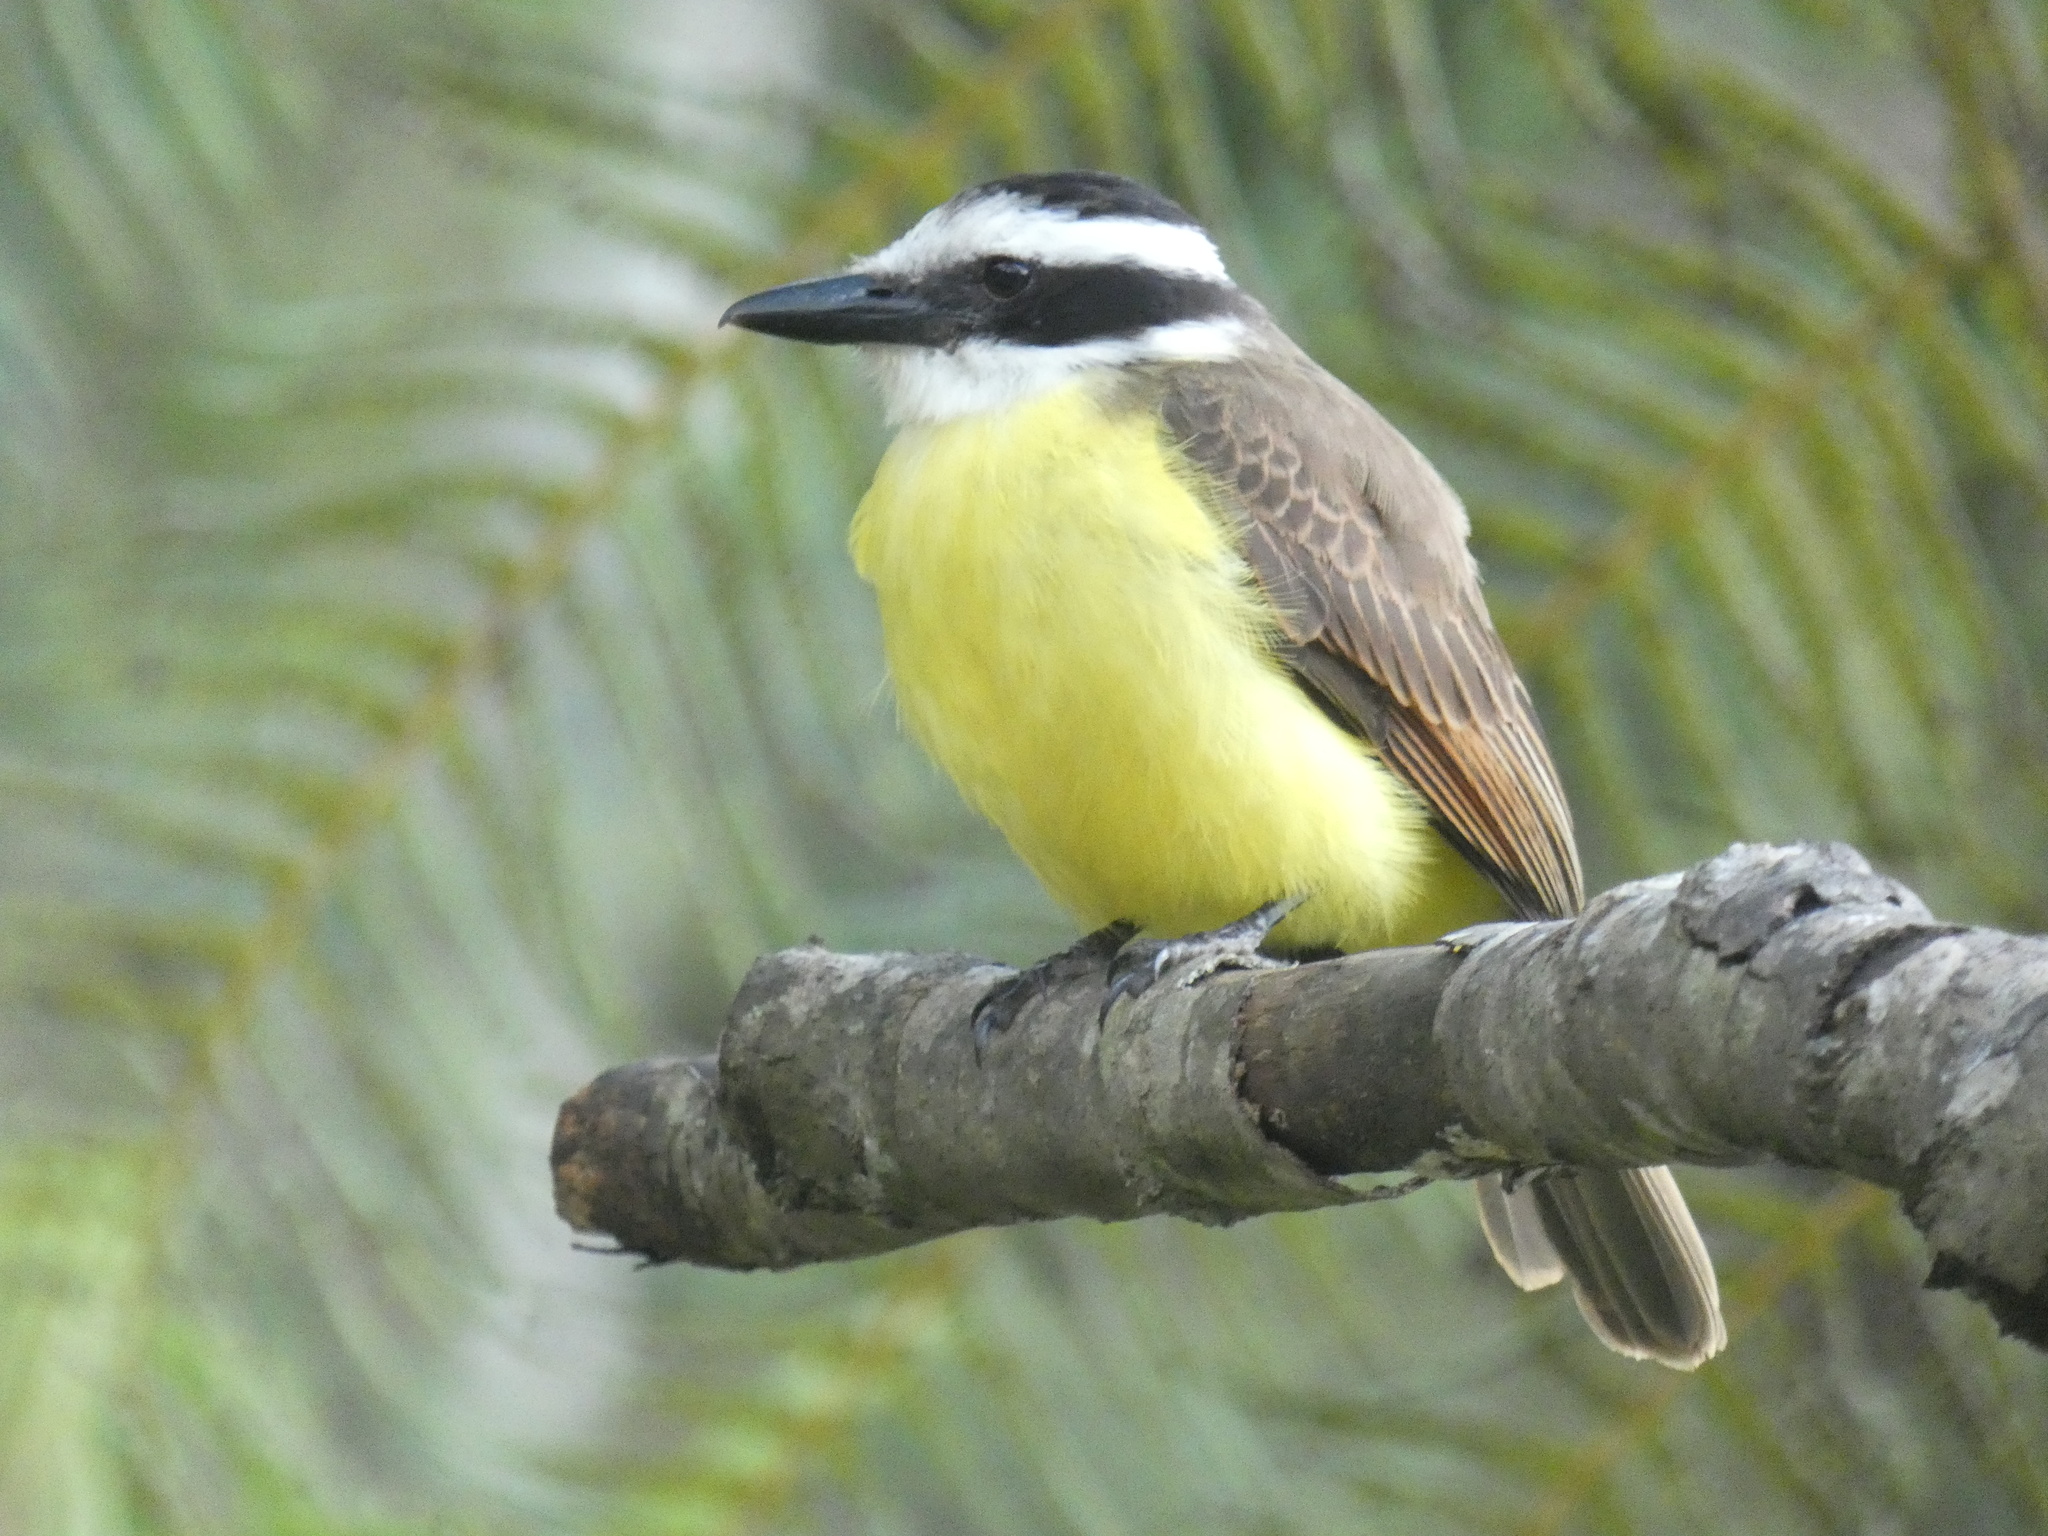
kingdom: Animalia
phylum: Chordata
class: Aves
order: Passeriformes
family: Tyrannidae
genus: Pitangus
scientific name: Pitangus sulphuratus
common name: Great kiskadee
